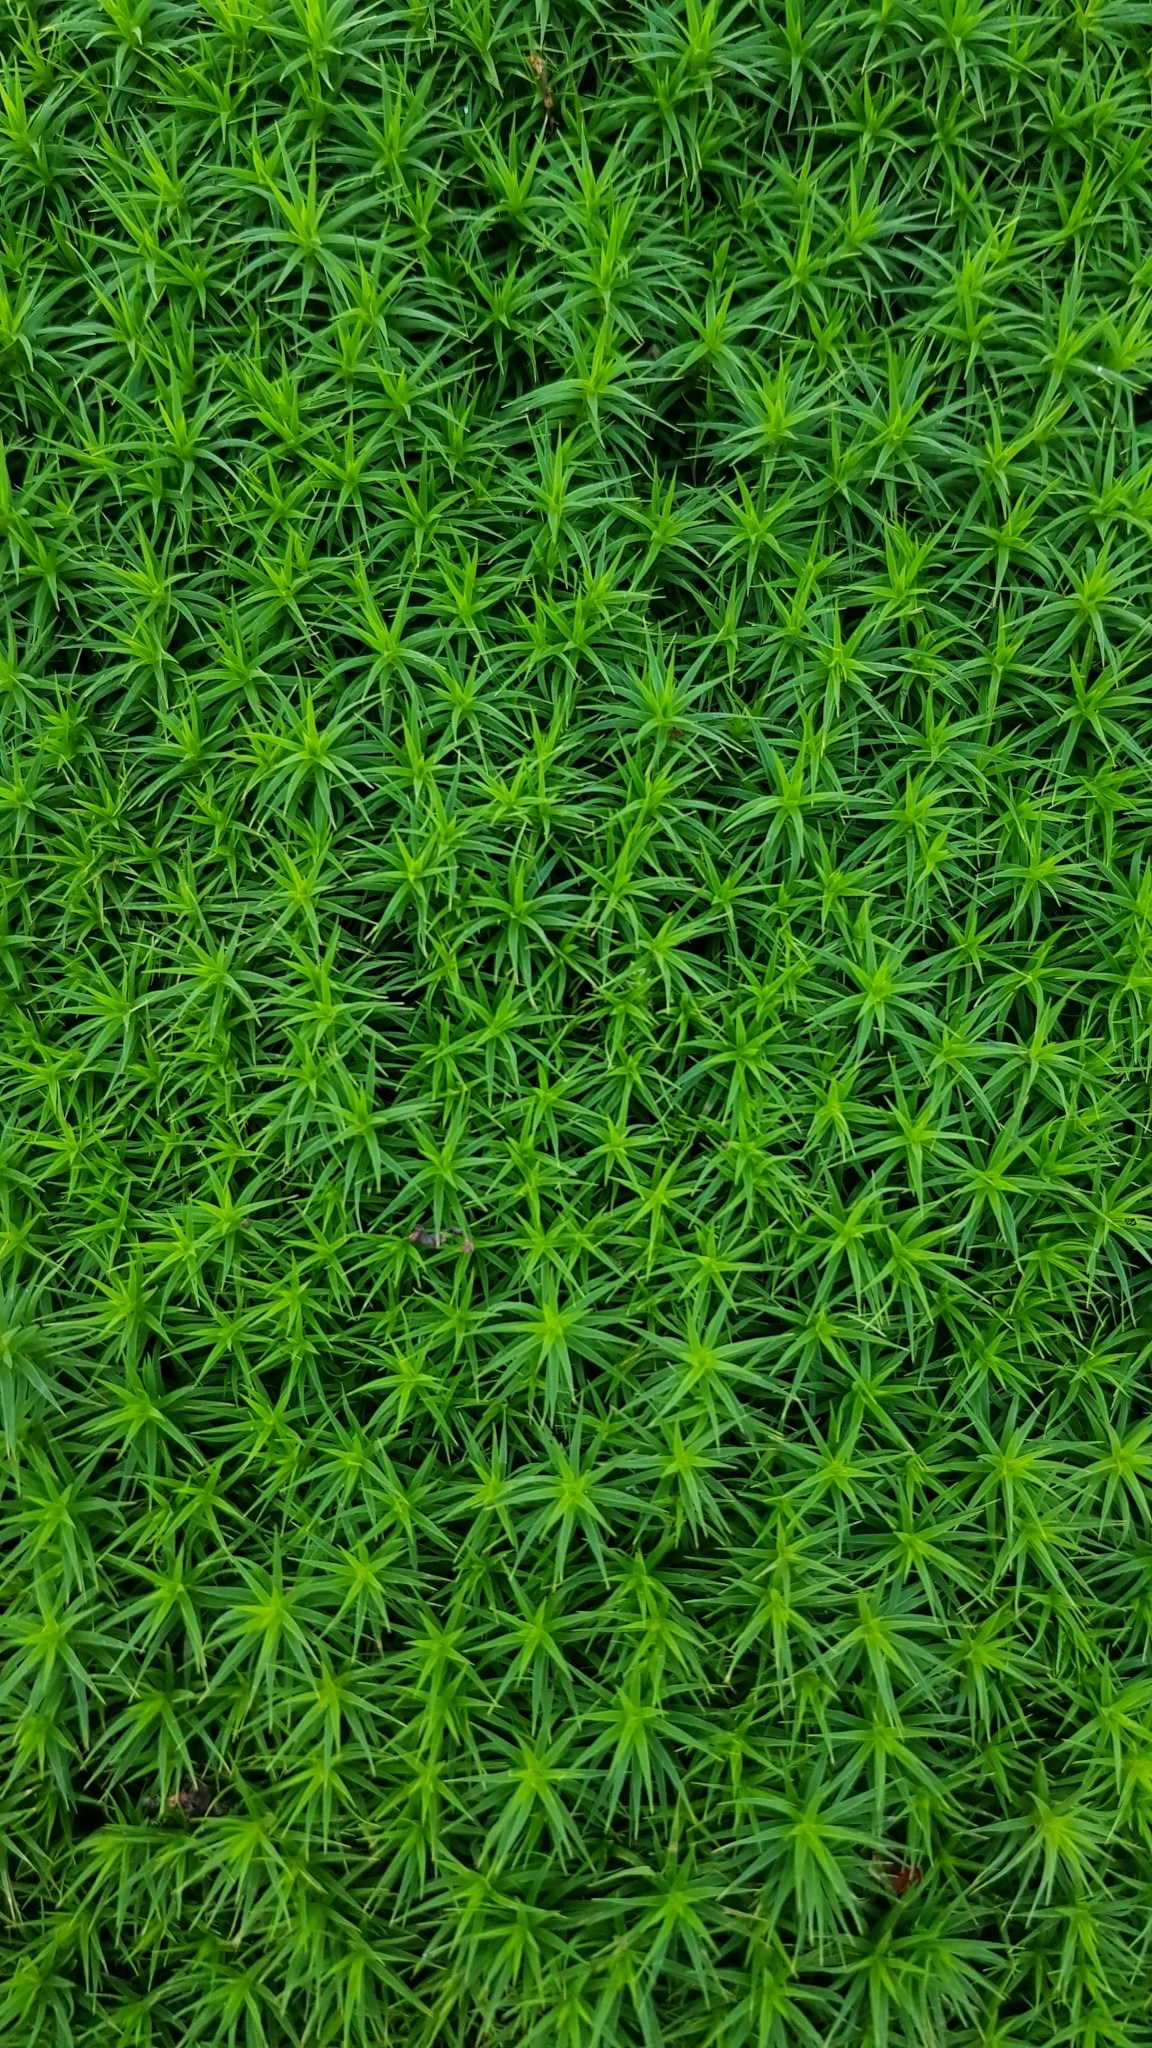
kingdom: Plantae
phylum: Bryophyta
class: Polytrichopsida
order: Polytrichales
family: Polytrichaceae
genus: Polytrichum
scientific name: Polytrichum formosum
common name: Bank haircap moss
